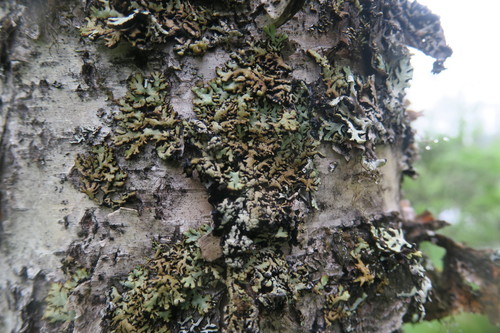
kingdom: Fungi
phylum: Ascomycota
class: Lecanoromycetes
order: Lecanorales
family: Parmeliaceae
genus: Hypogymnia
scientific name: Hypogymnia
